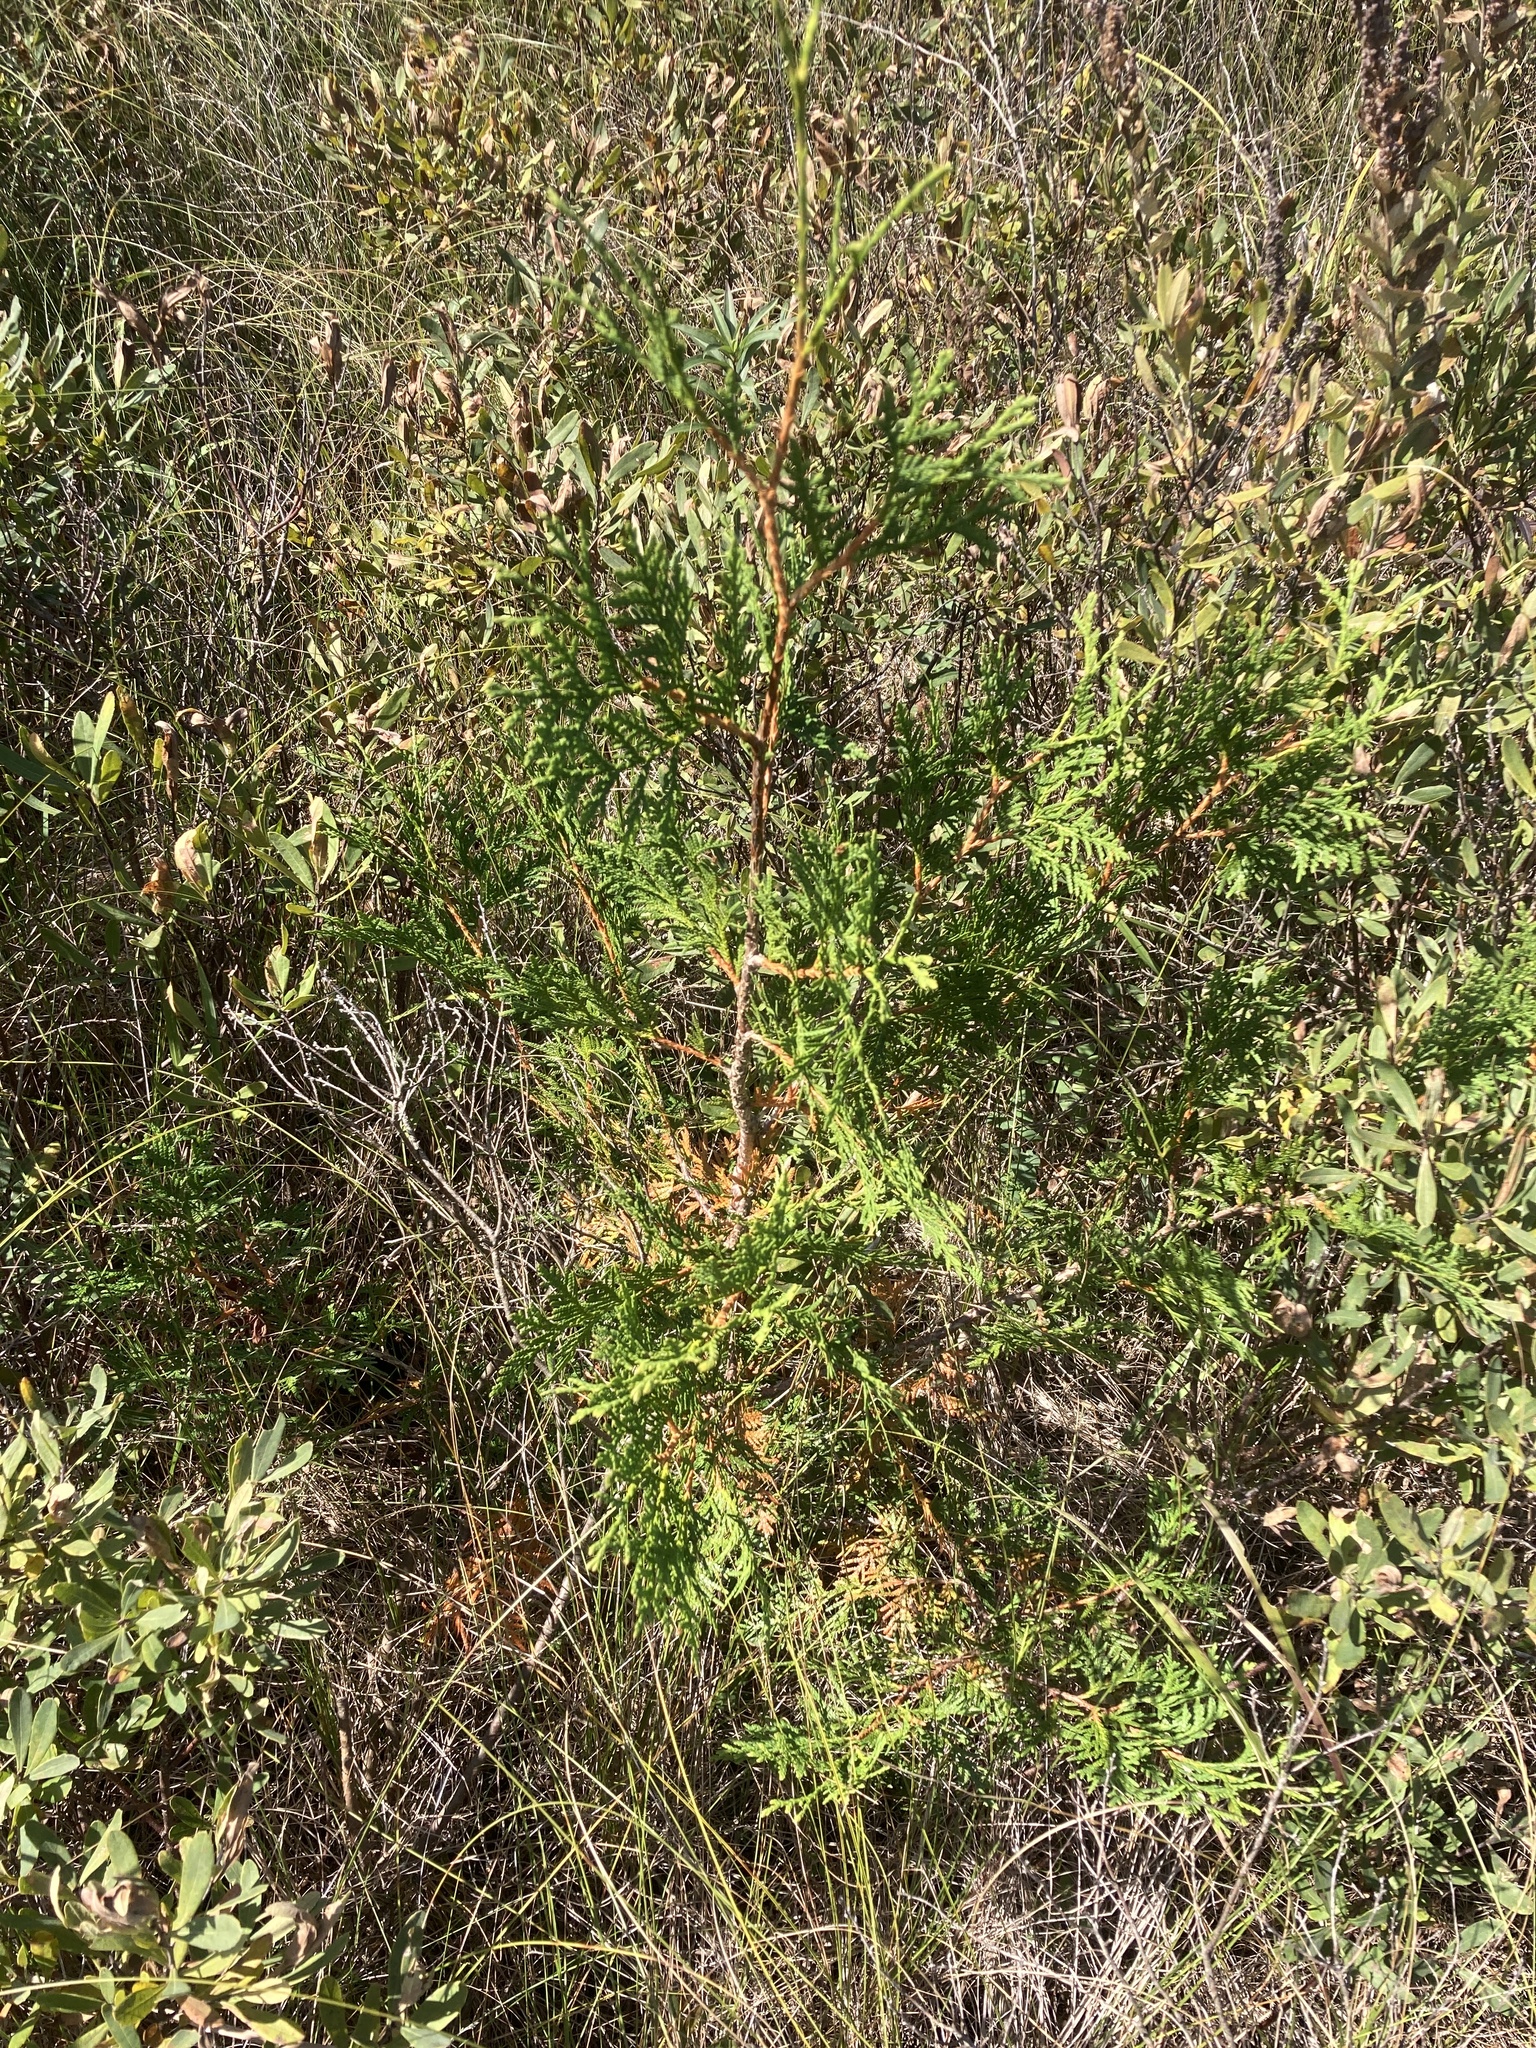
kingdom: Plantae
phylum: Tracheophyta
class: Pinopsida
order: Pinales
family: Cupressaceae
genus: Thuja
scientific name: Thuja occidentalis
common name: Northern white-cedar
